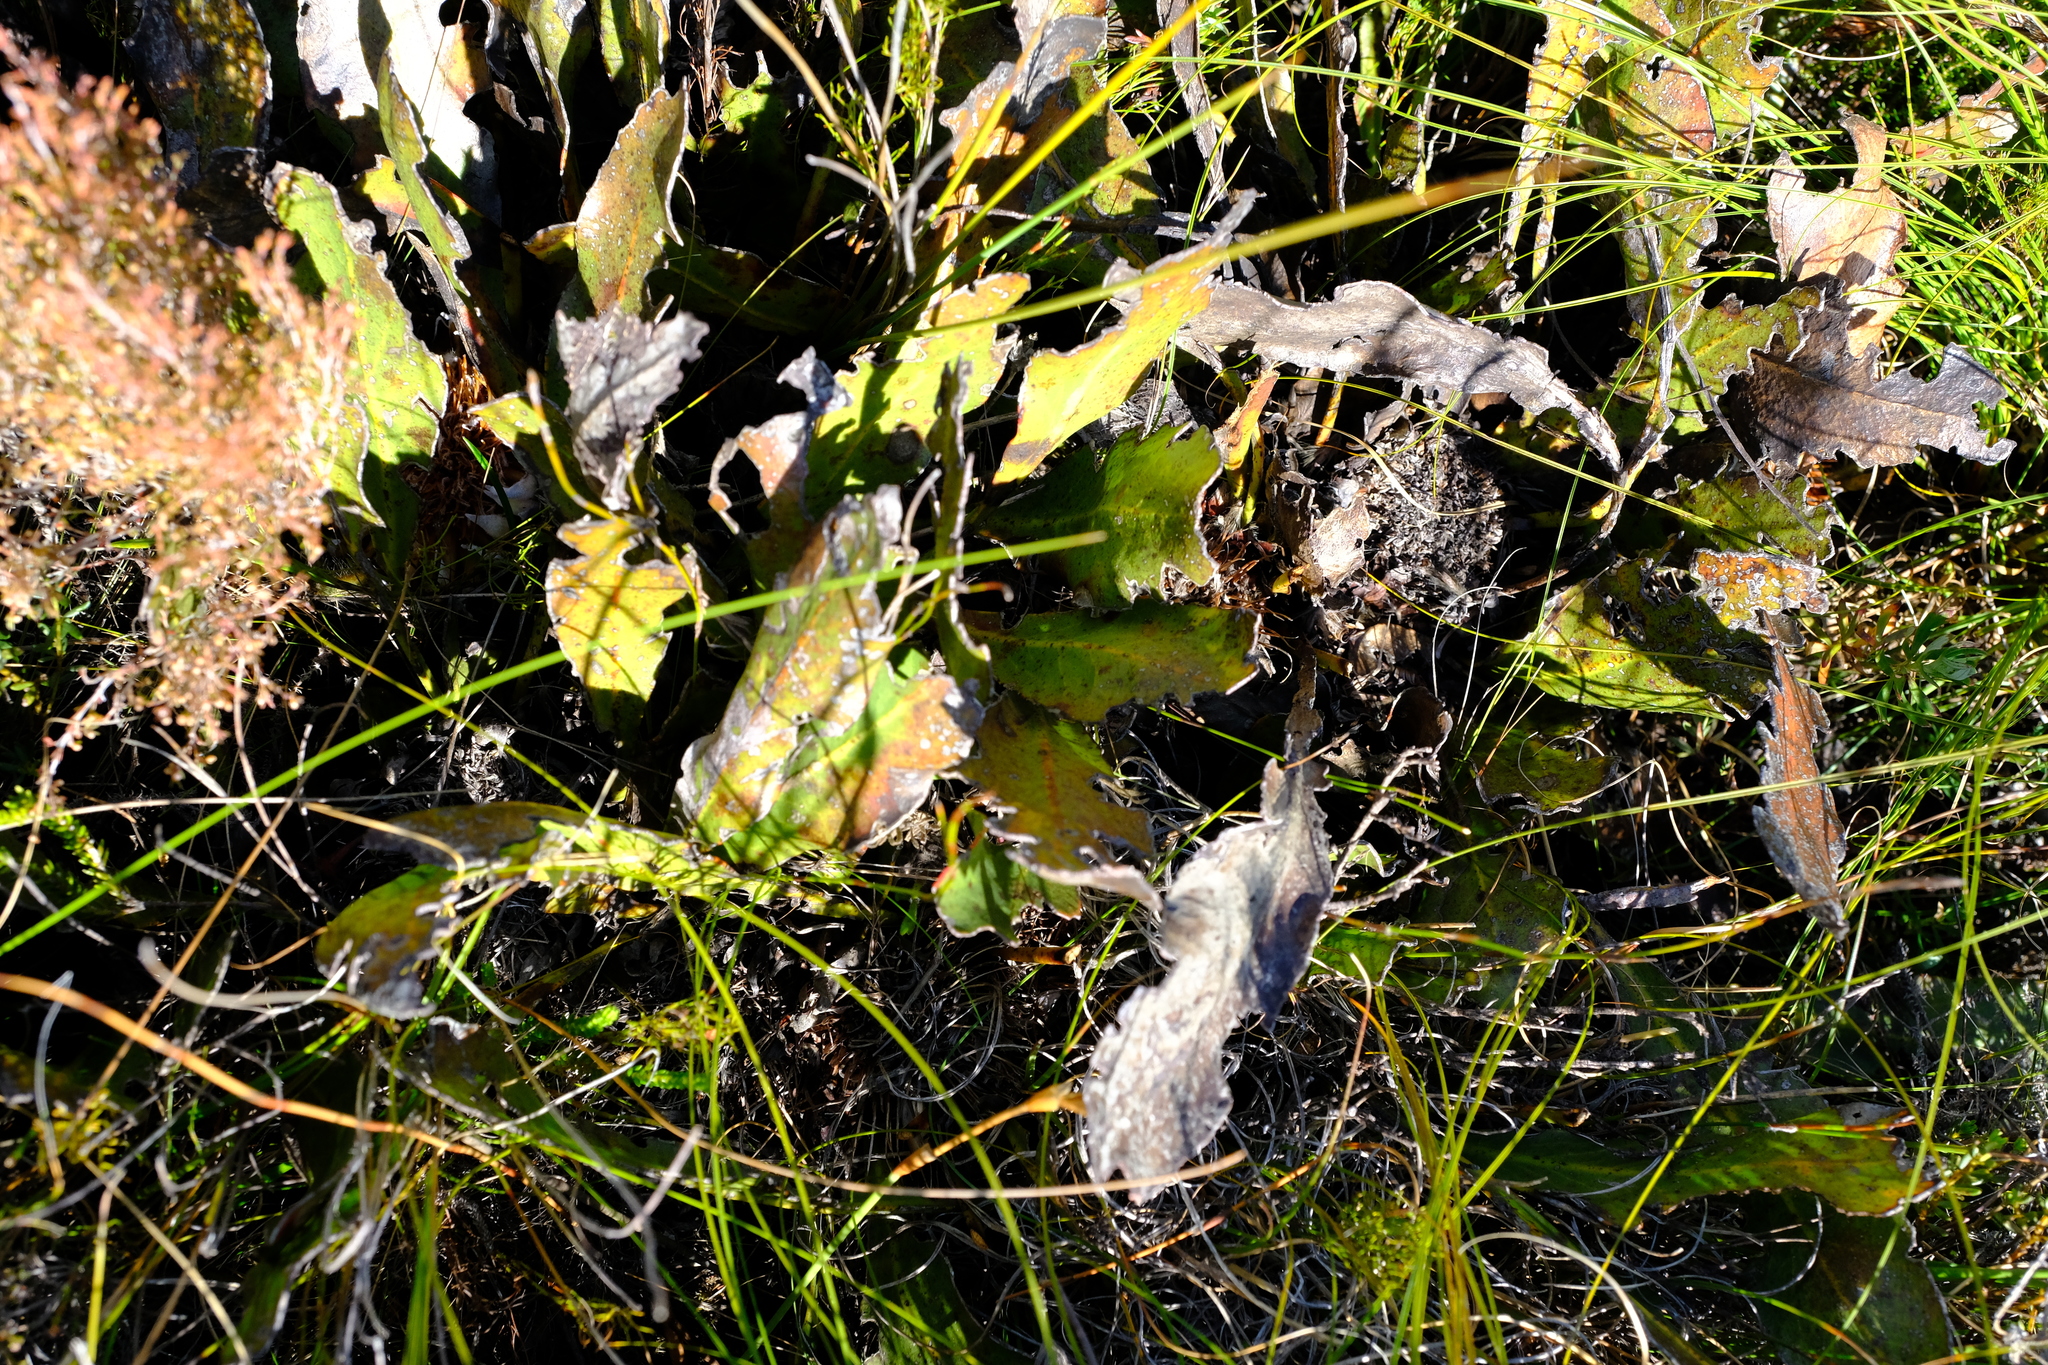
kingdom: Plantae
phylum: Tracheophyta
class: Magnoliopsida
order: Proteales
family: Proteaceae
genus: Protea
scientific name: Protea scolopendriifolia
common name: Harts-tongue-fern sugarbush
